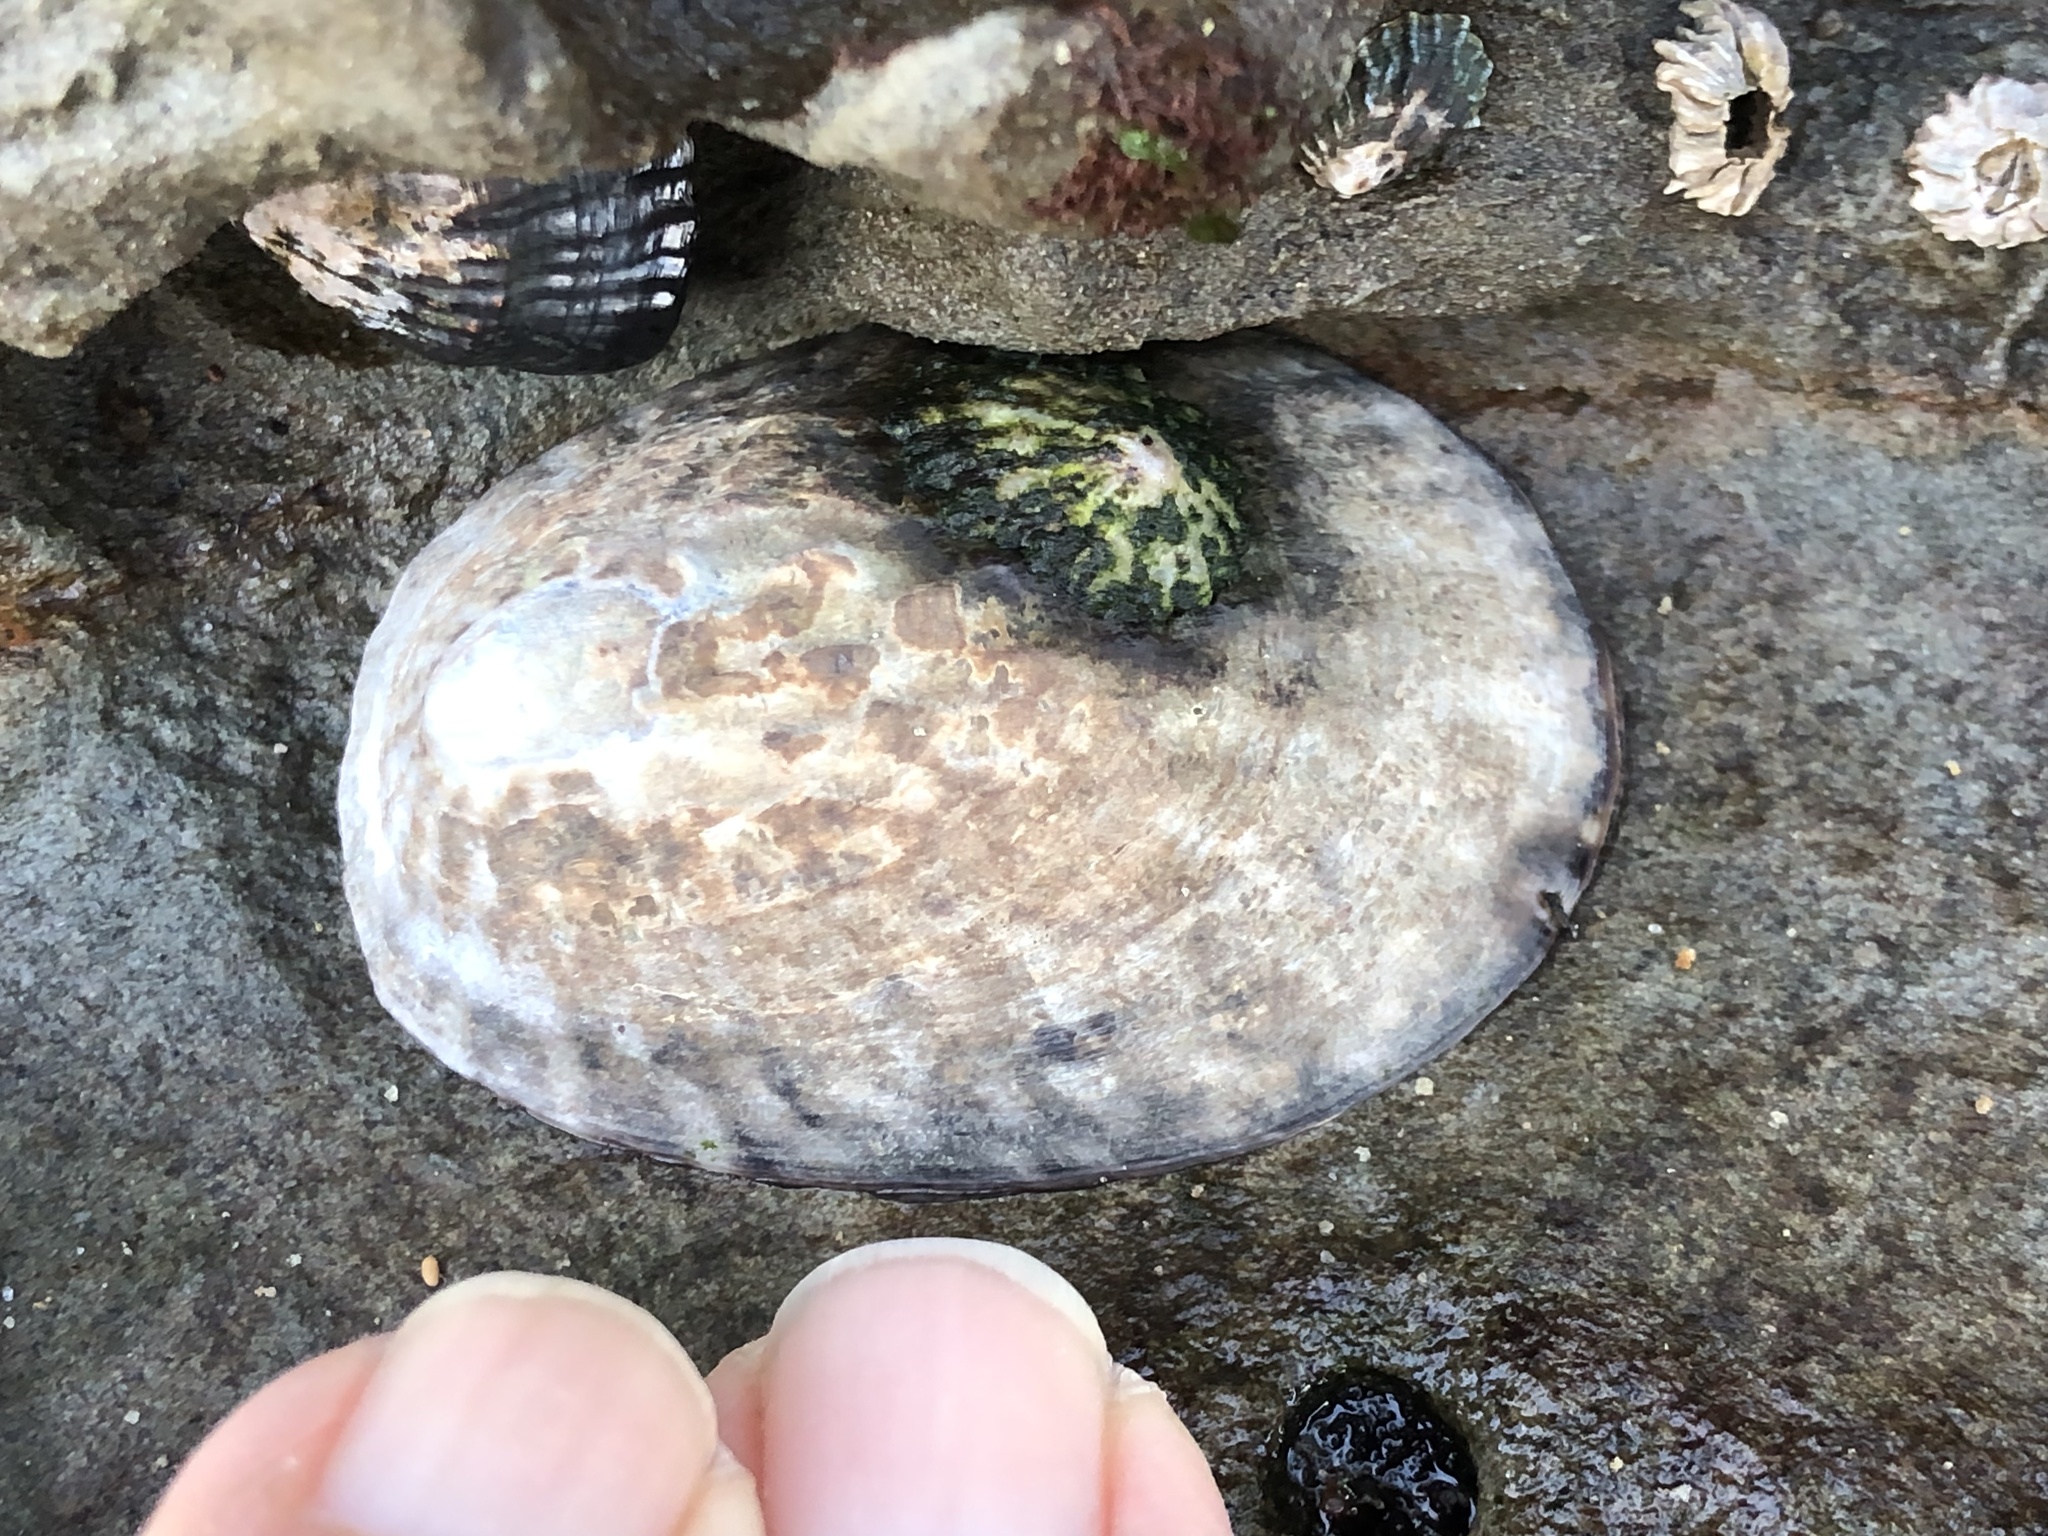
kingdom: Animalia
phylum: Mollusca
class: Gastropoda
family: Lottiidae
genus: Lottia
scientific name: Lottia gigantea
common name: Owl limpet
